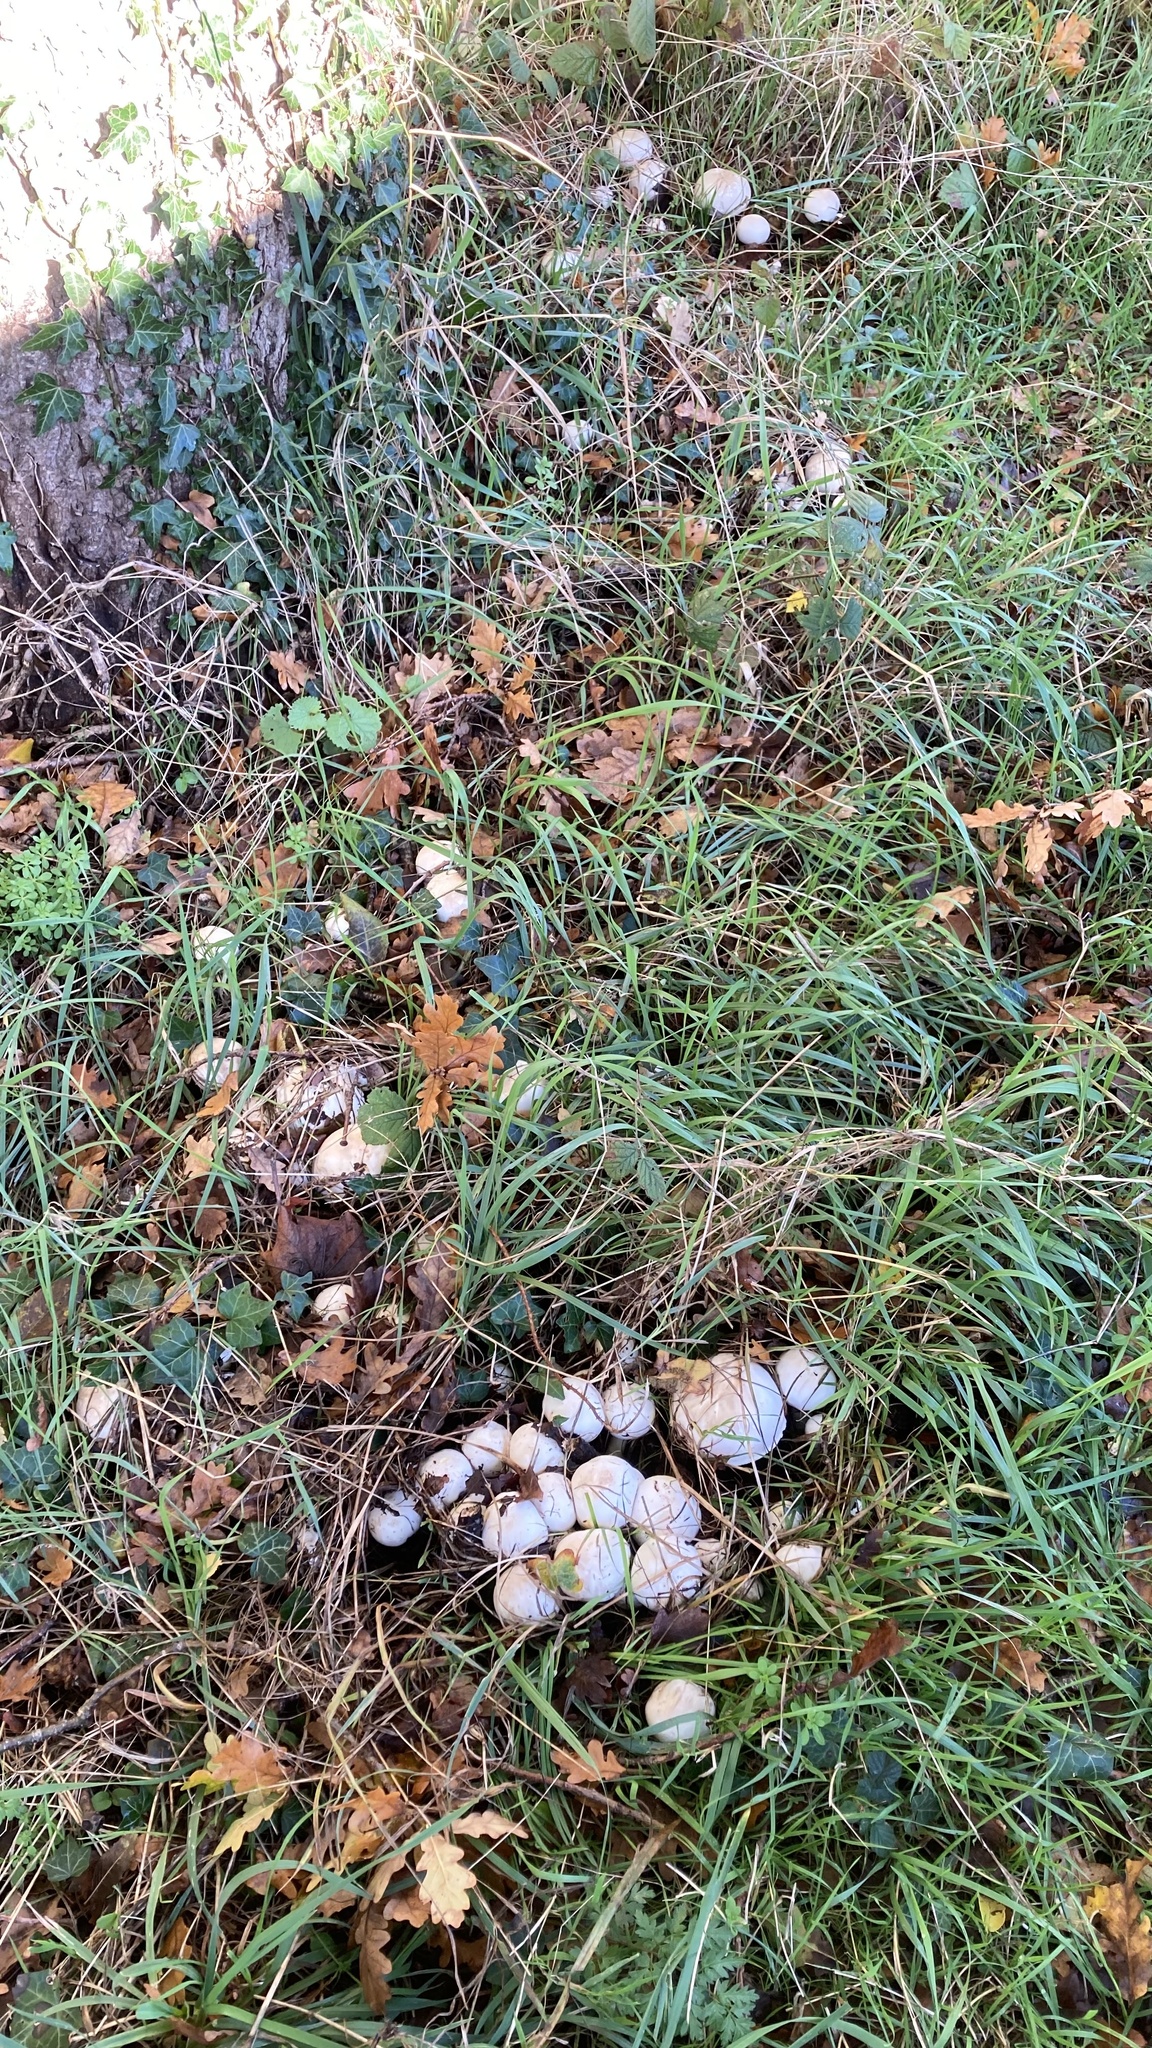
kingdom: Fungi
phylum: Basidiomycota
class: Agaricomycetes
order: Agaricales
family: Agaricaceae
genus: Agaricus
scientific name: Agaricus xanthodermus
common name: Yellow stainer
